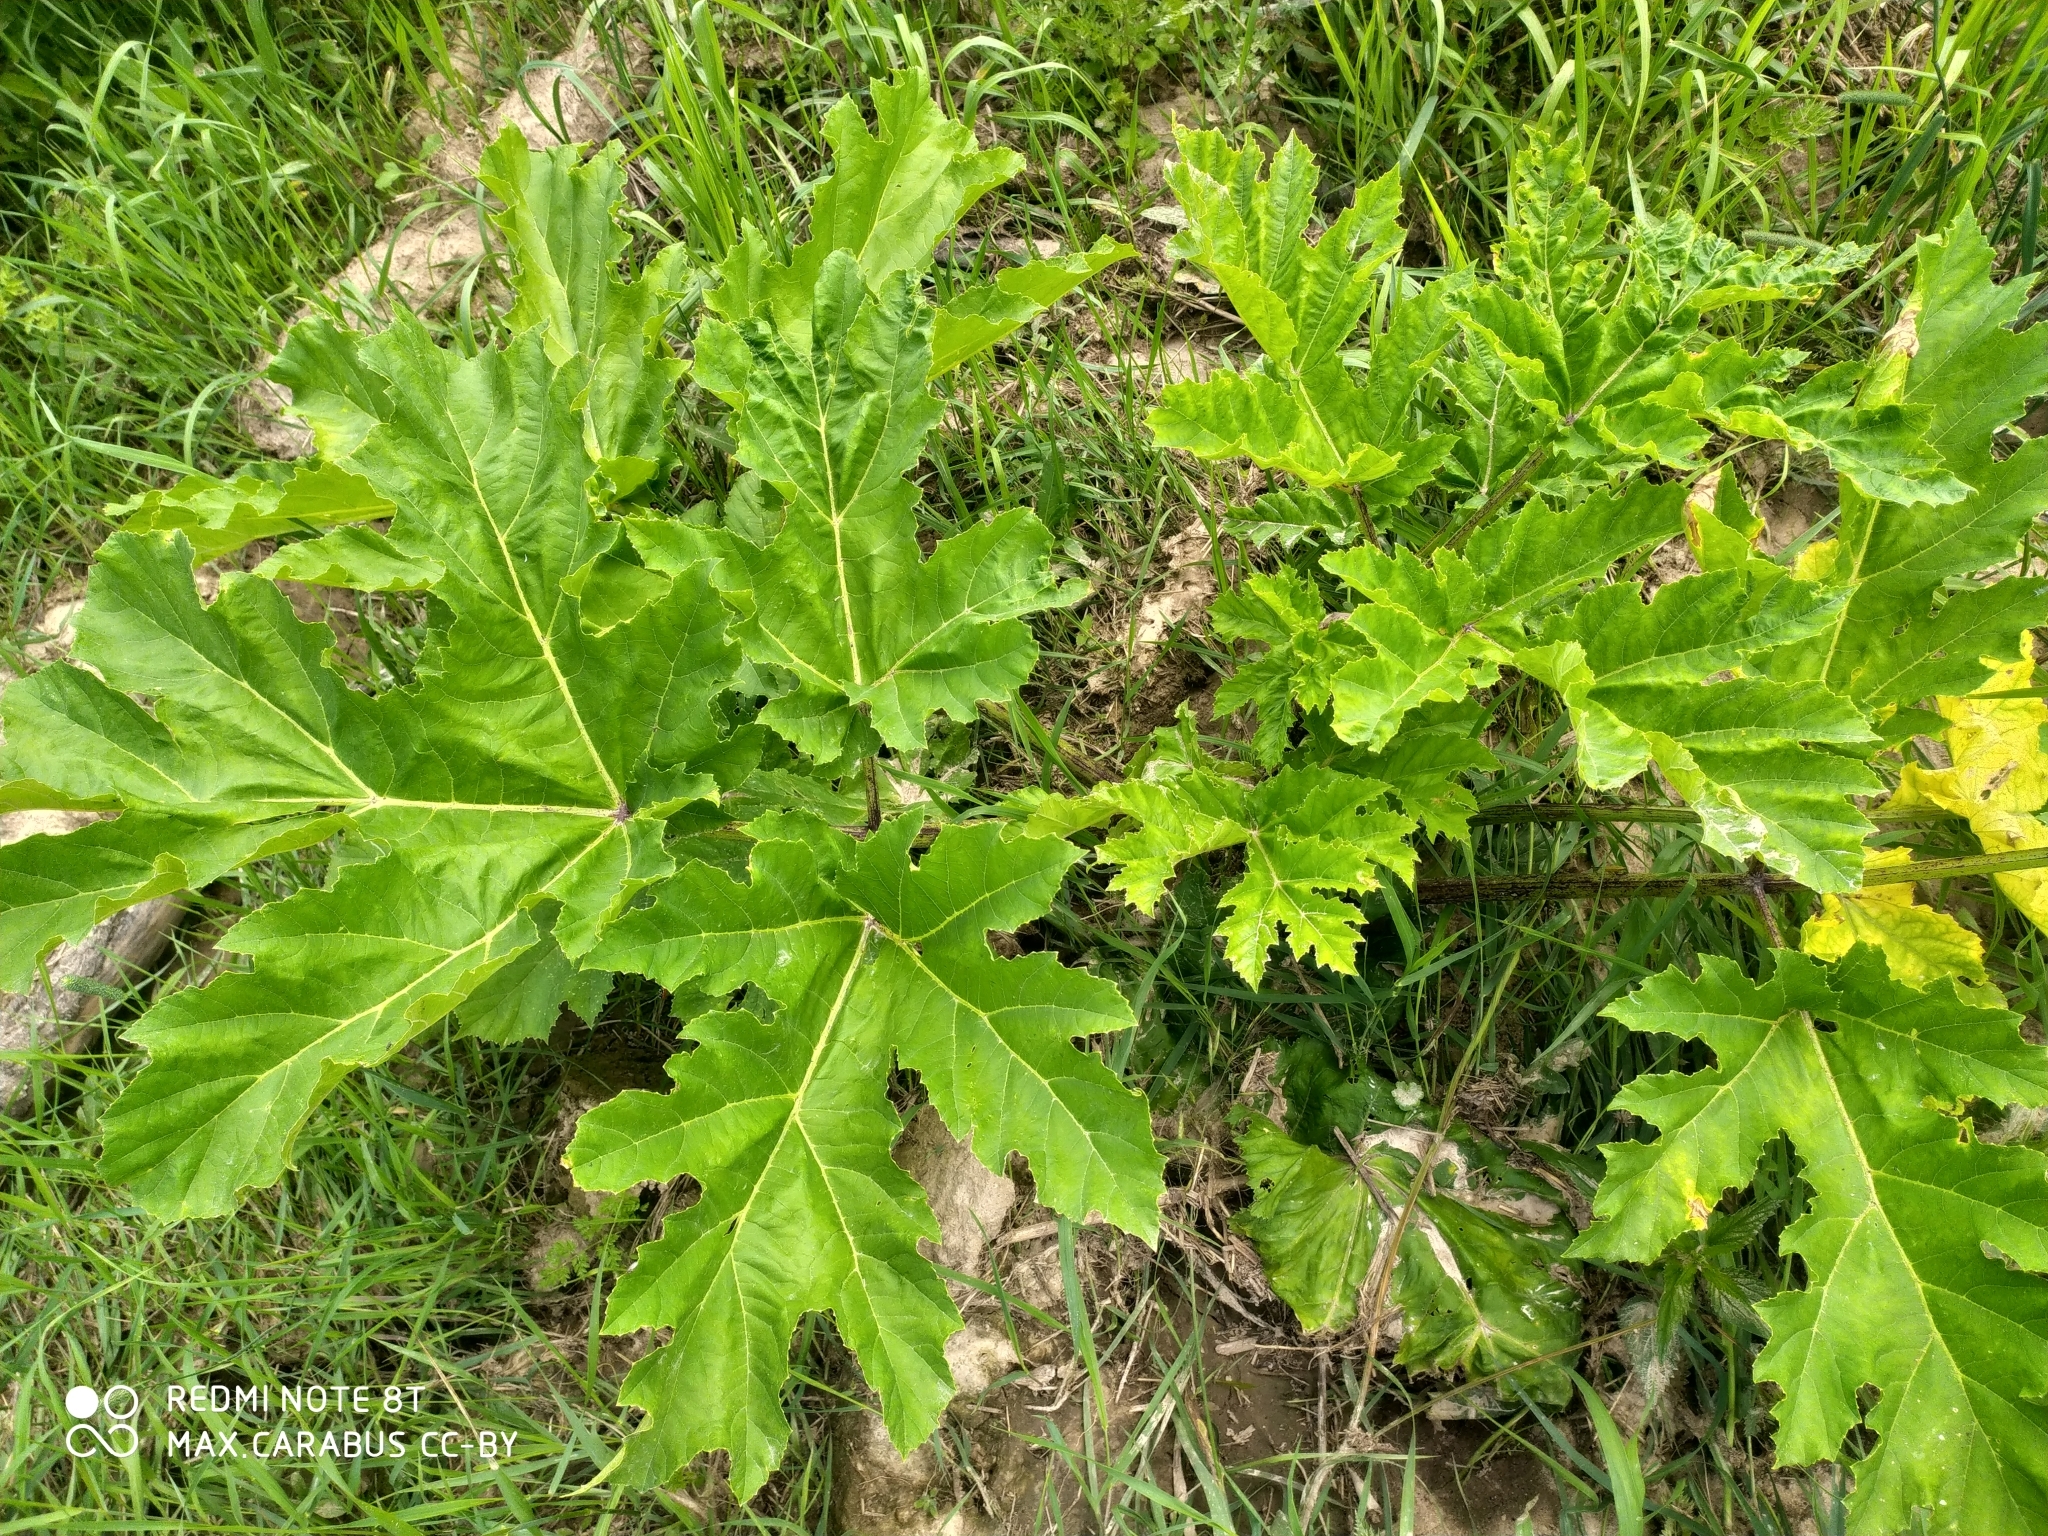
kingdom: Plantae
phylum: Tracheophyta
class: Magnoliopsida
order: Apiales
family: Apiaceae
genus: Heracleum
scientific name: Heracleum sosnowskyi
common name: Sosnowsky's hogweed
